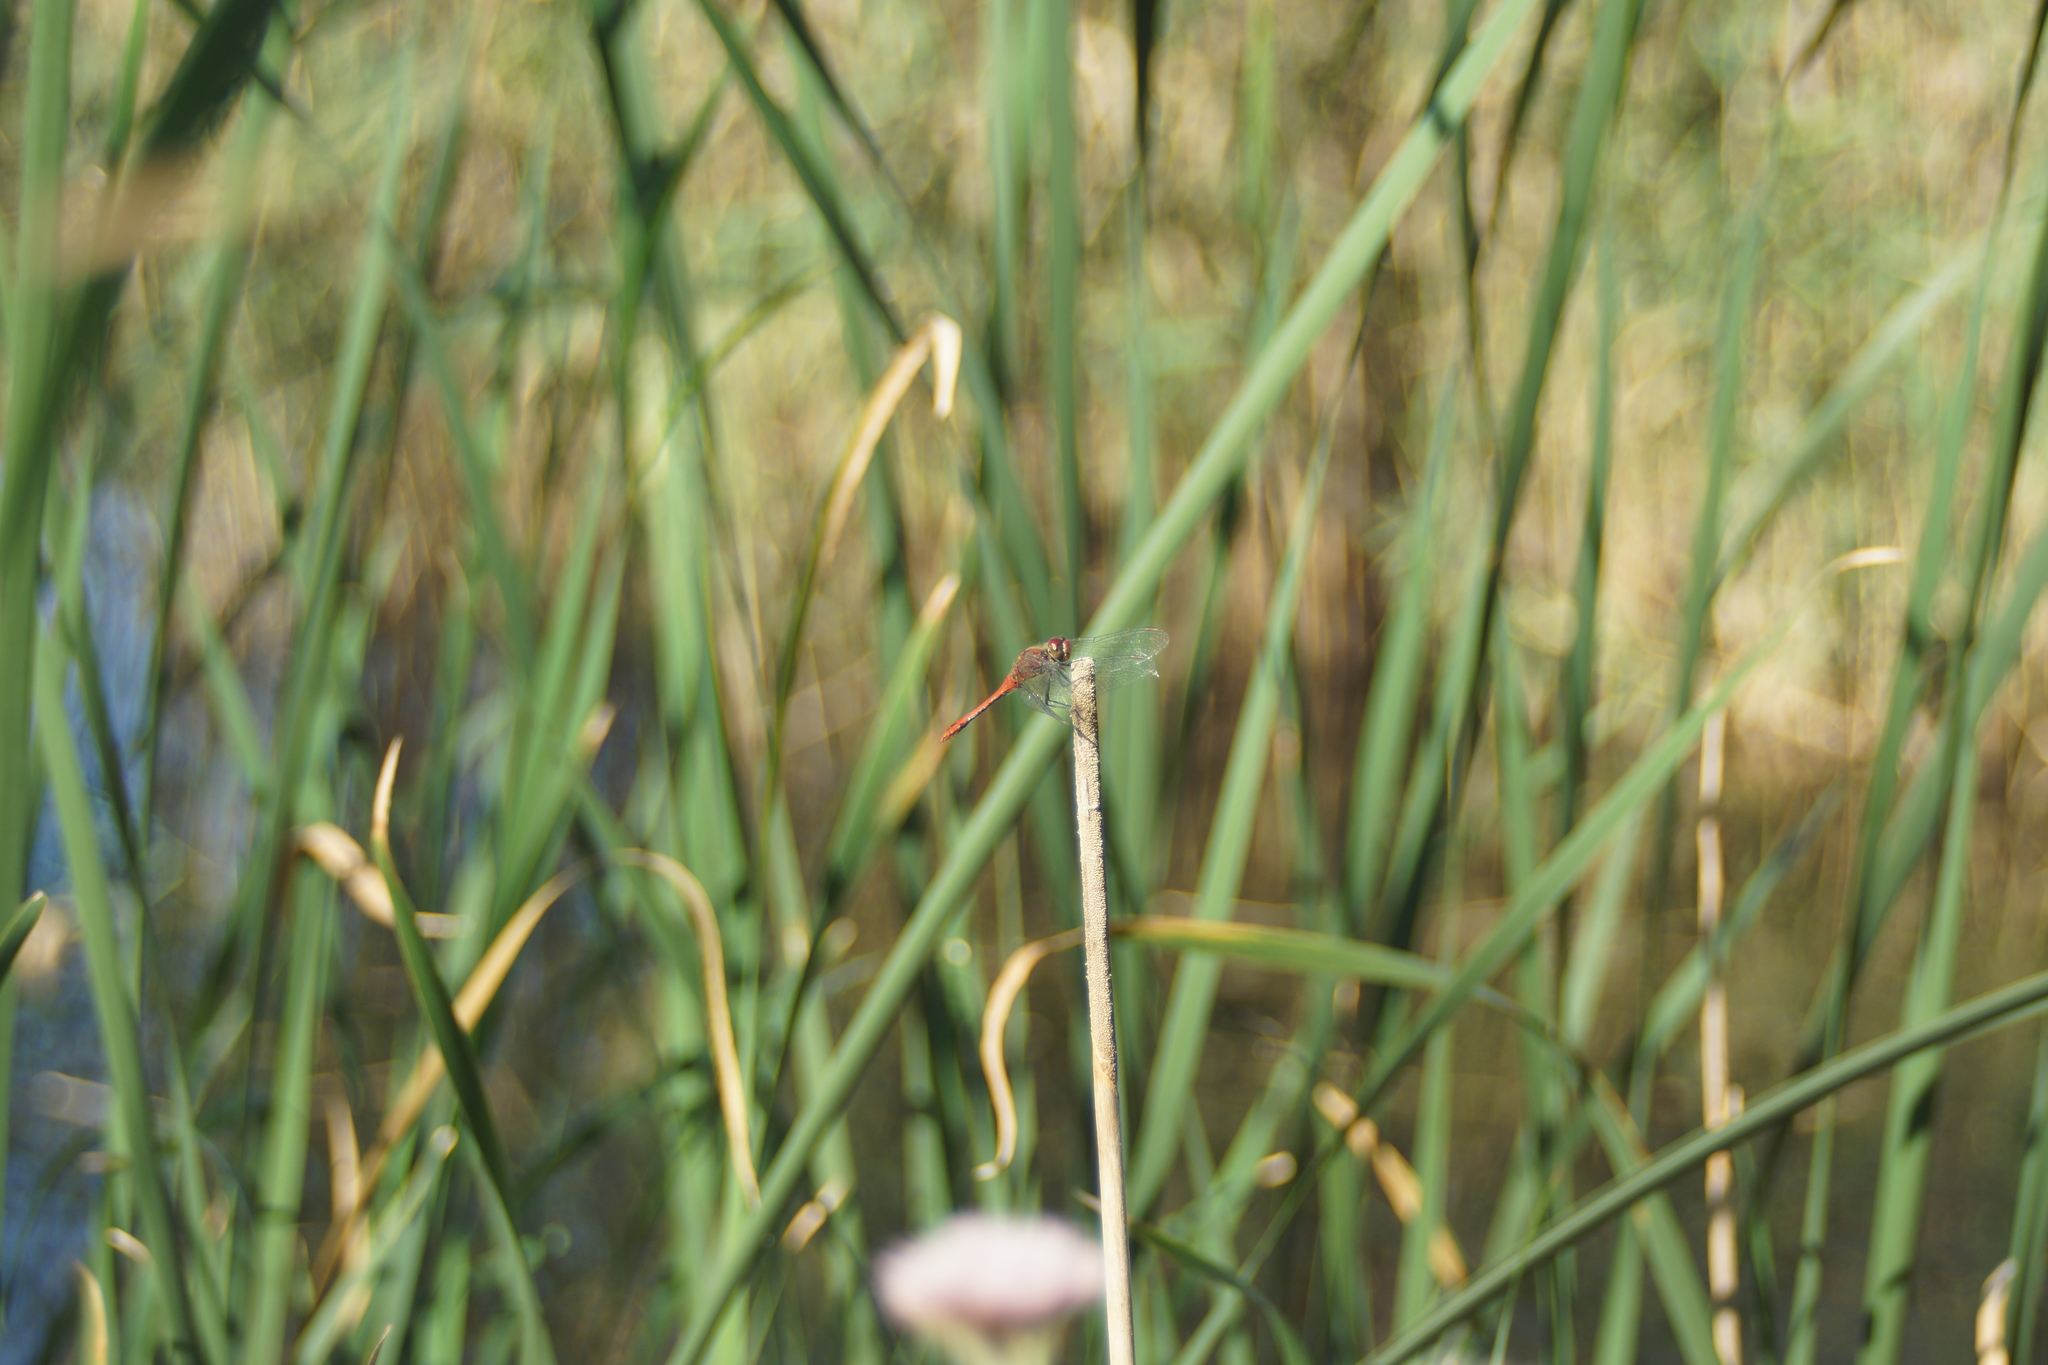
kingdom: Animalia
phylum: Arthropoda
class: Insecta
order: Odonata
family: Libellulidae
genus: Sympetrum
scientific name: Sympetrum sanguineum
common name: Ruddy darter
